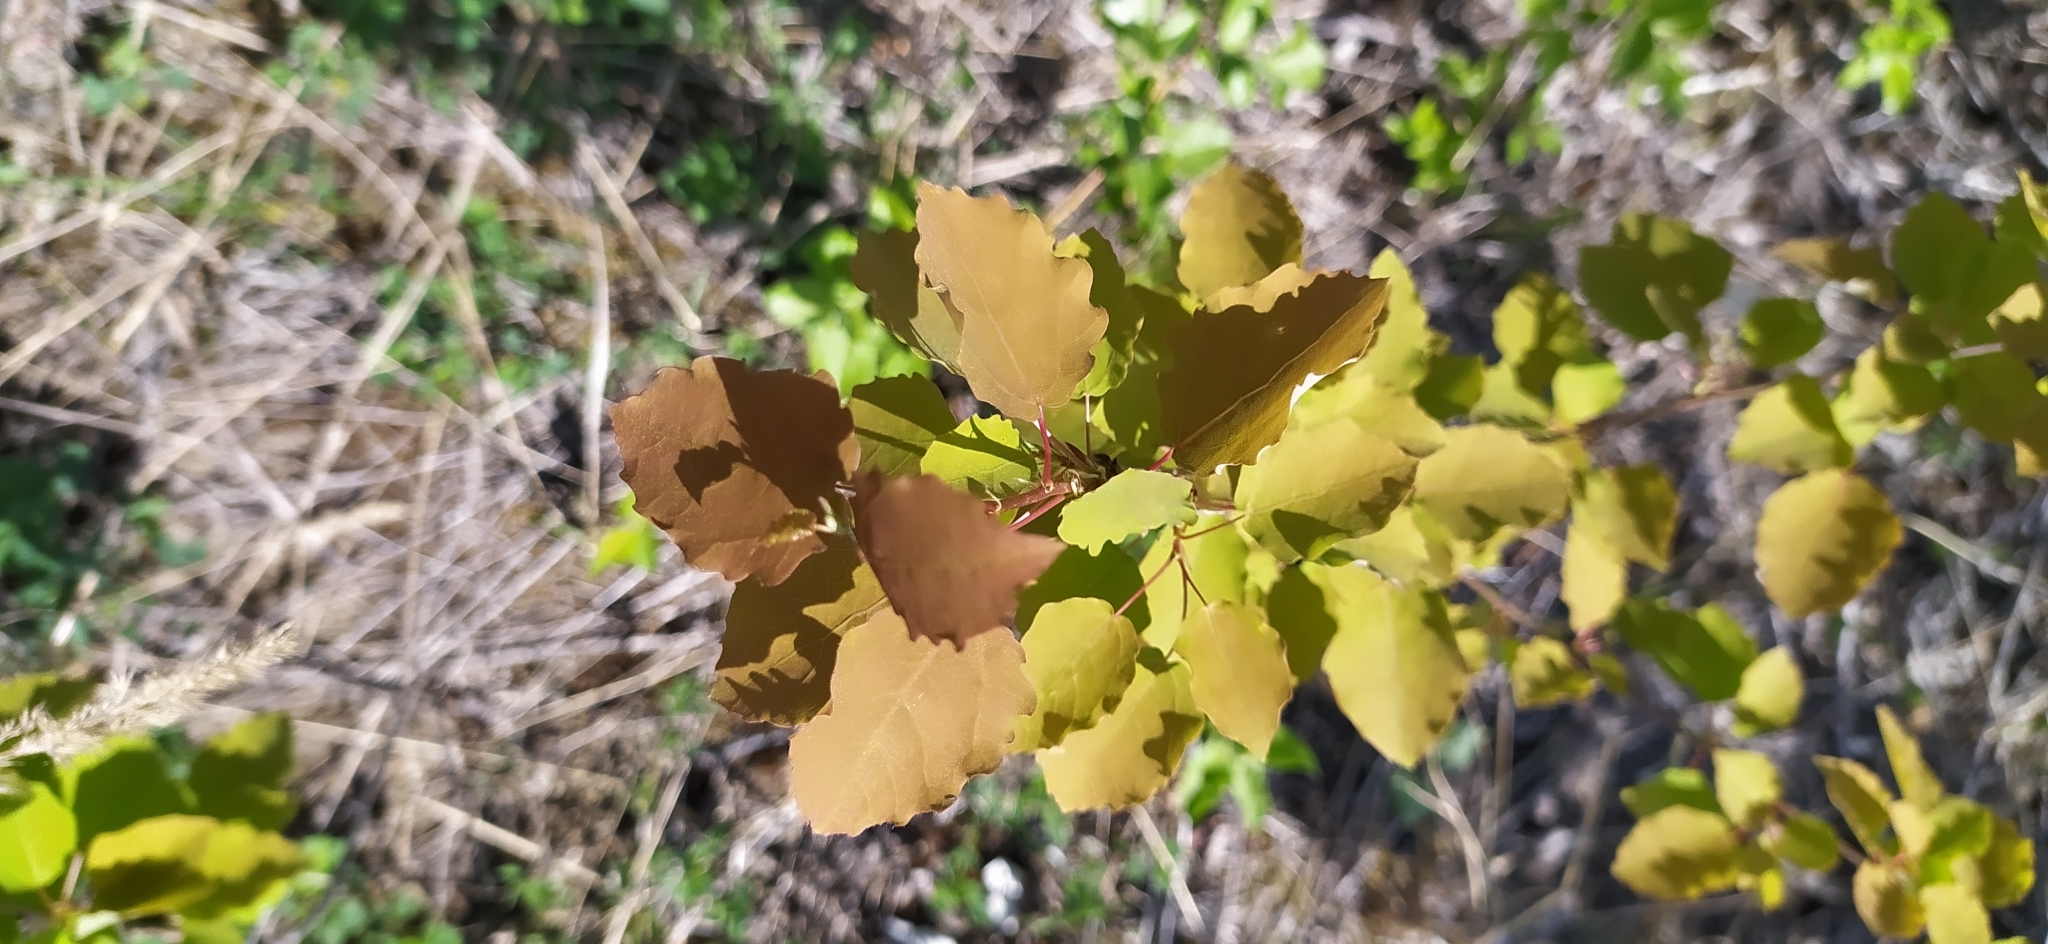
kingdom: Plantae
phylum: Tracheophyta
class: Magnoliopsida
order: Malpighiales
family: Salicaceae
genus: Populus
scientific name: Populus tremula
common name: European aspen
